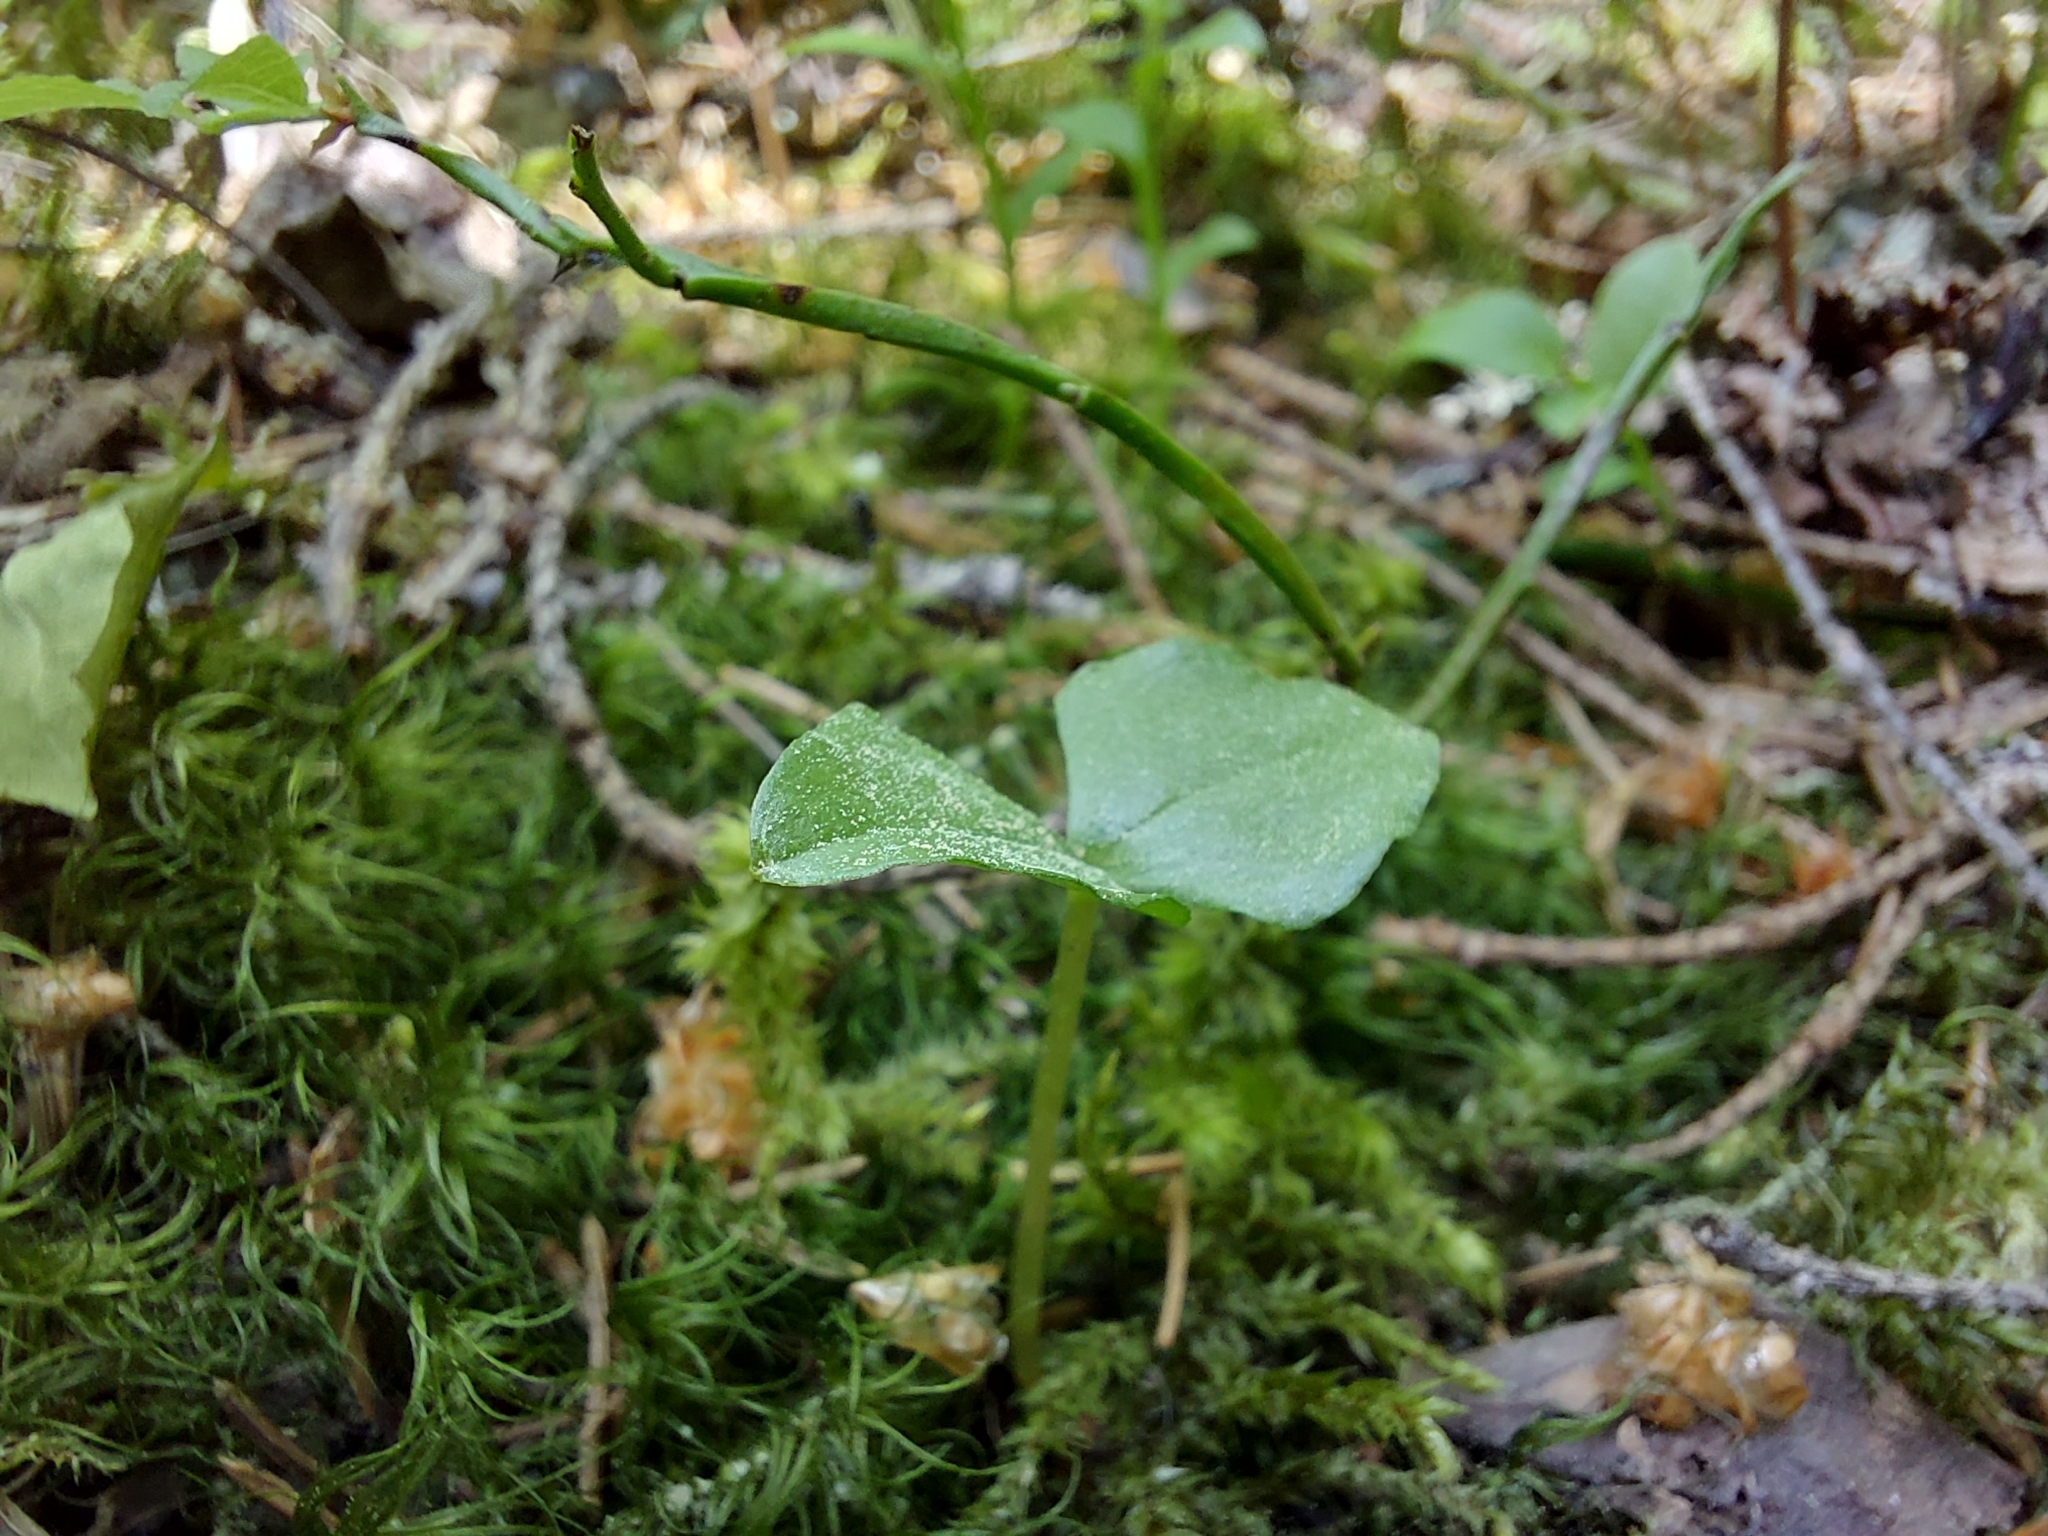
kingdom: Plantae
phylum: Tracheophyta
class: Liliopsida
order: Asparagales
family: Orchidaceae
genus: Neottia
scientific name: Neottia cordata
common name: Lesser twayblade
